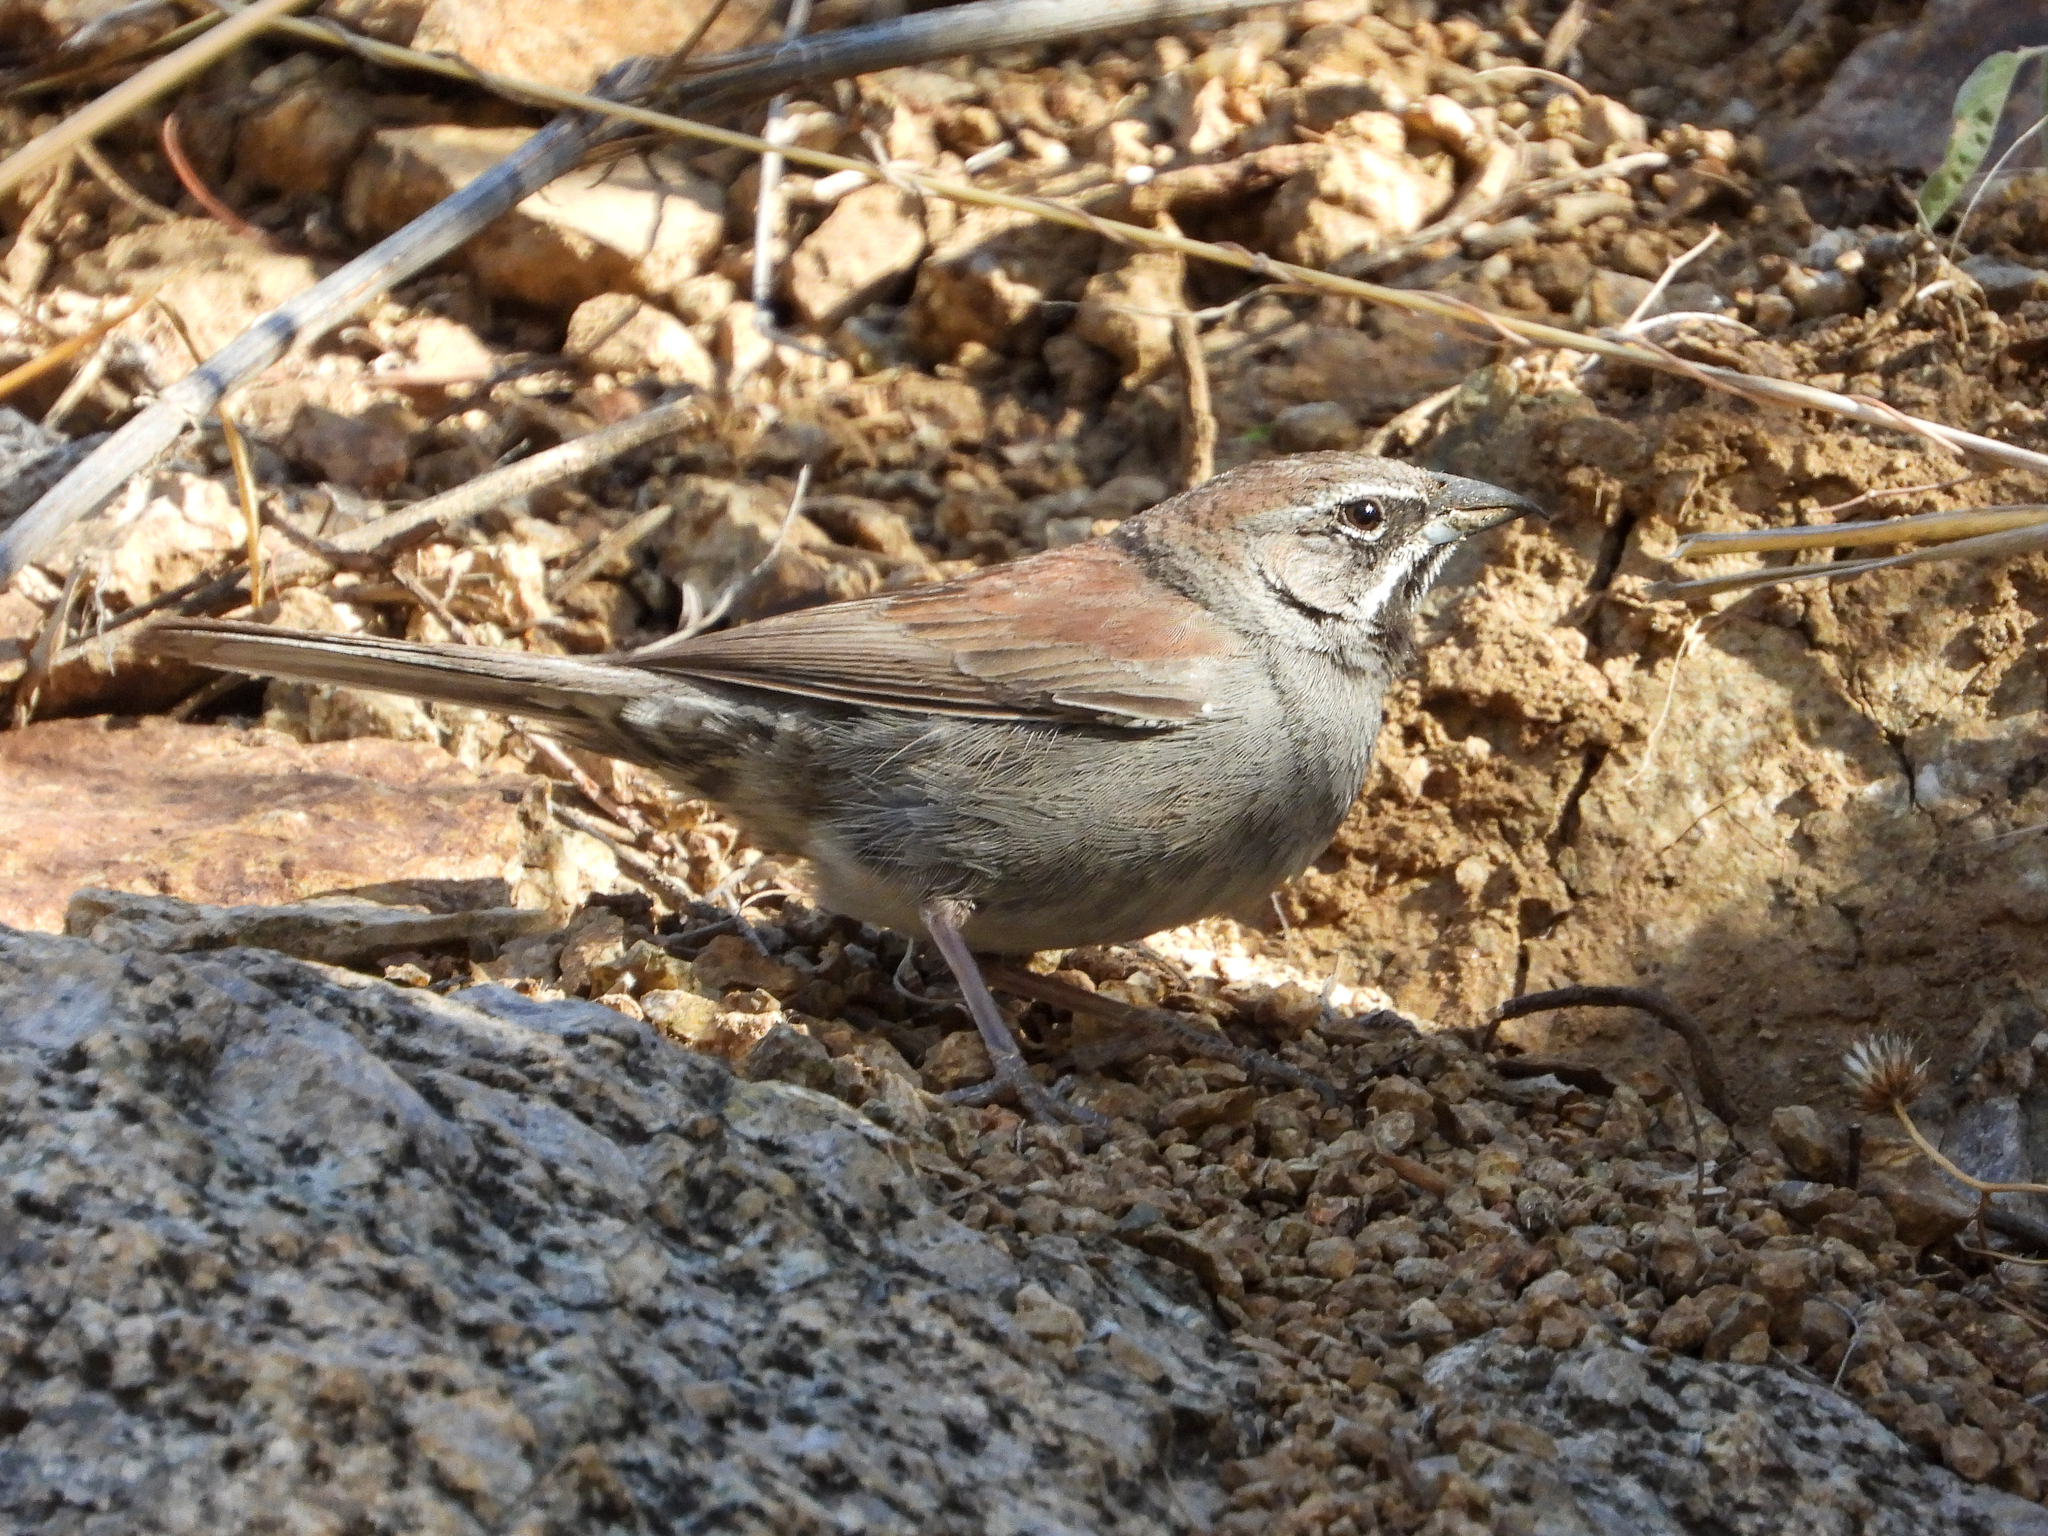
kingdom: Animalia
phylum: Chordata
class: Aves
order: Passeriformes
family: Passerellidae
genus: Amphispizopsis
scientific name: Amphispizopsis quinquestriata
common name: Five-striped sparrow
